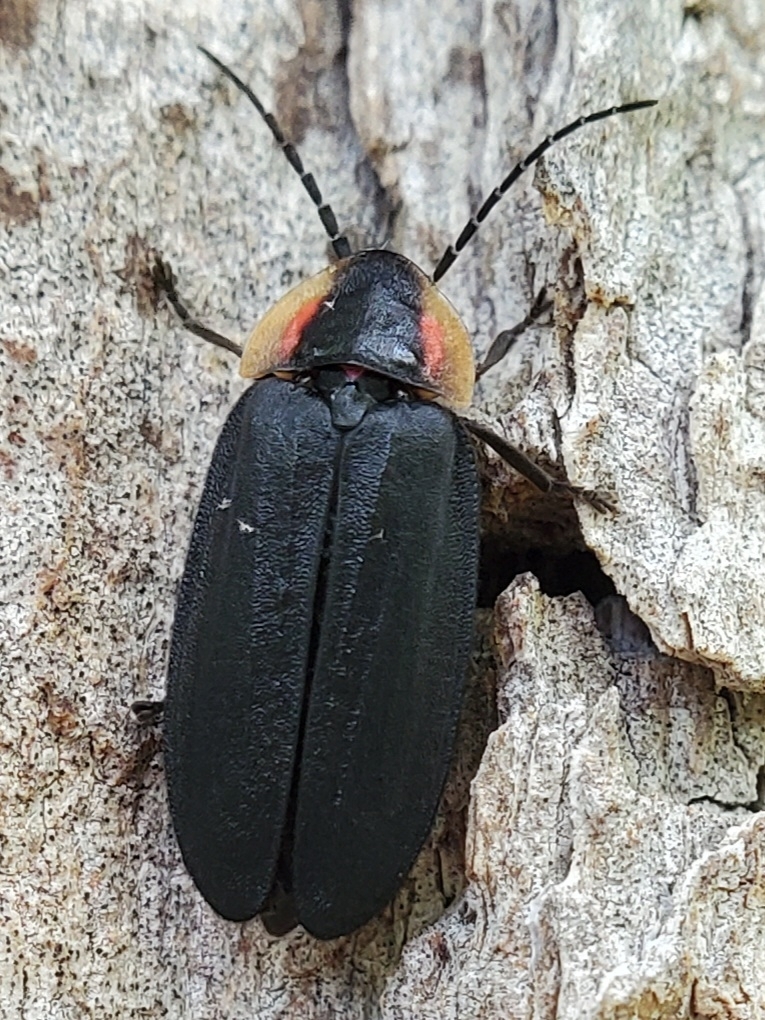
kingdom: Animalia
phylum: Arthropoda
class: Insecta
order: Coleoptera
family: Lampyridae
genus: Lucidota
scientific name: Lucidota atra
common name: Black firefly
